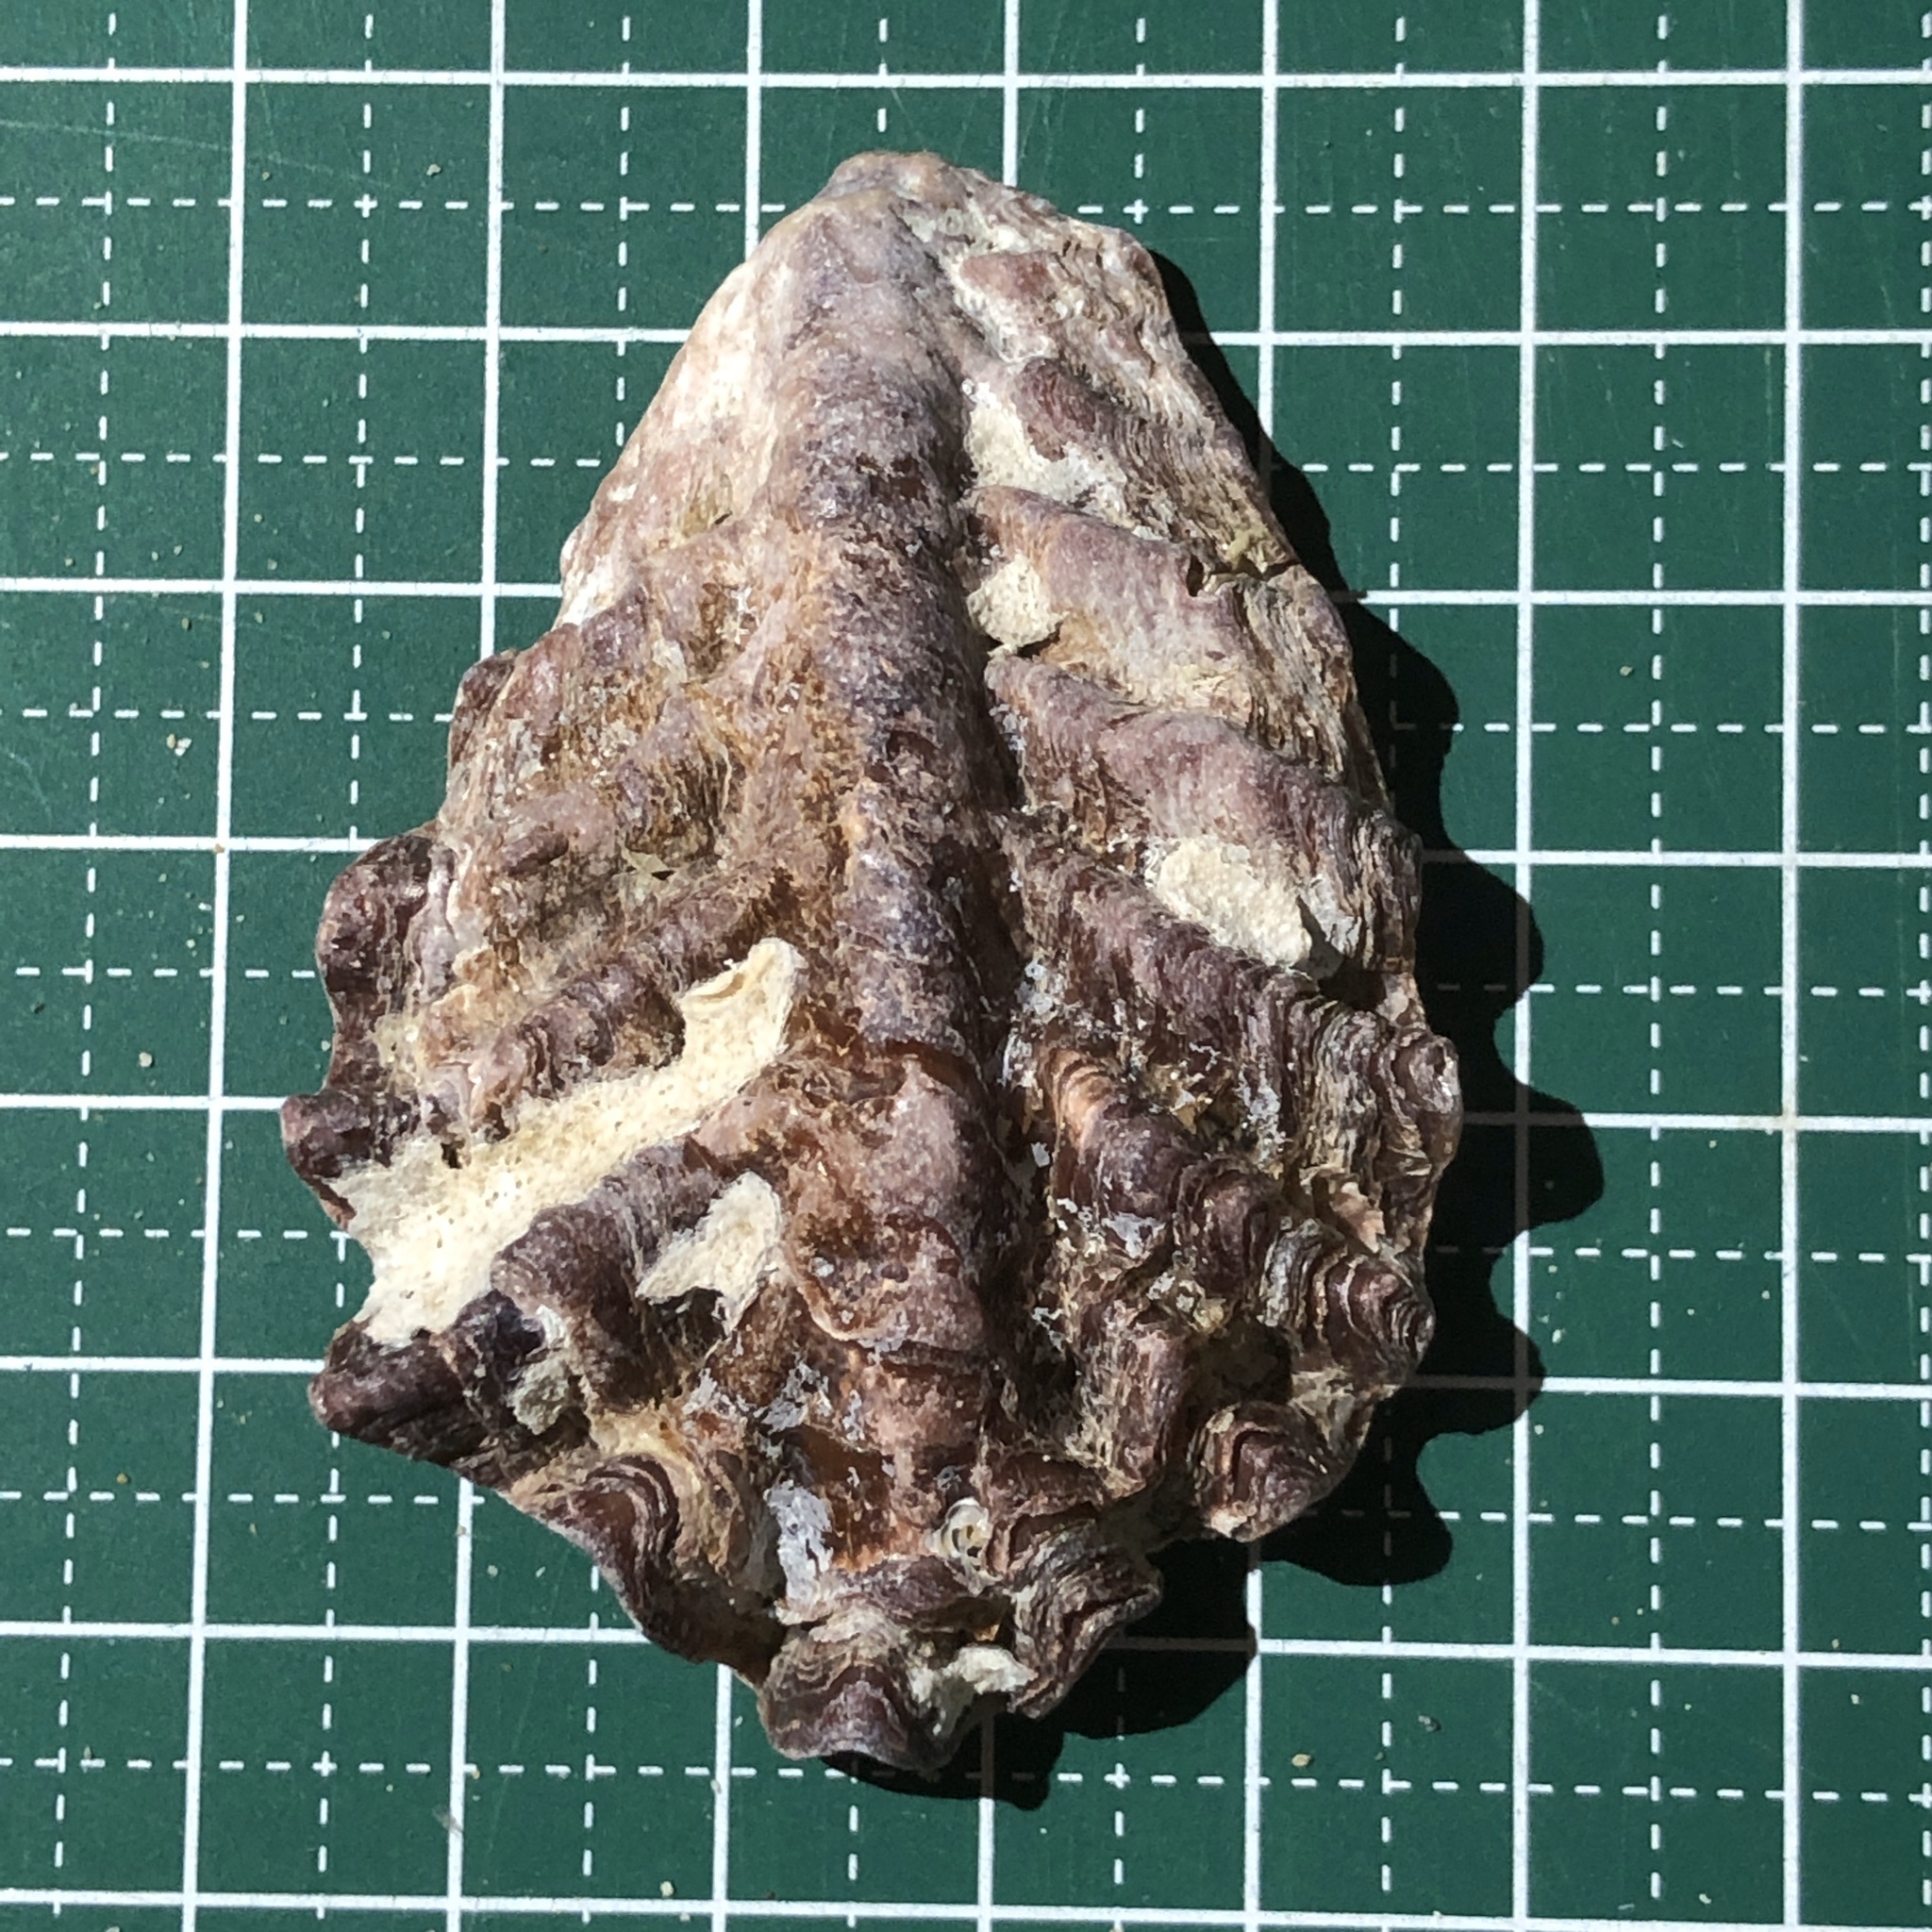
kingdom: Animalia
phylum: Mollusca
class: Bivalvia
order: Ostreida
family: Ostreidae
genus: Lopha
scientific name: Lopha cristagalli
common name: Cock's-comb oyster
